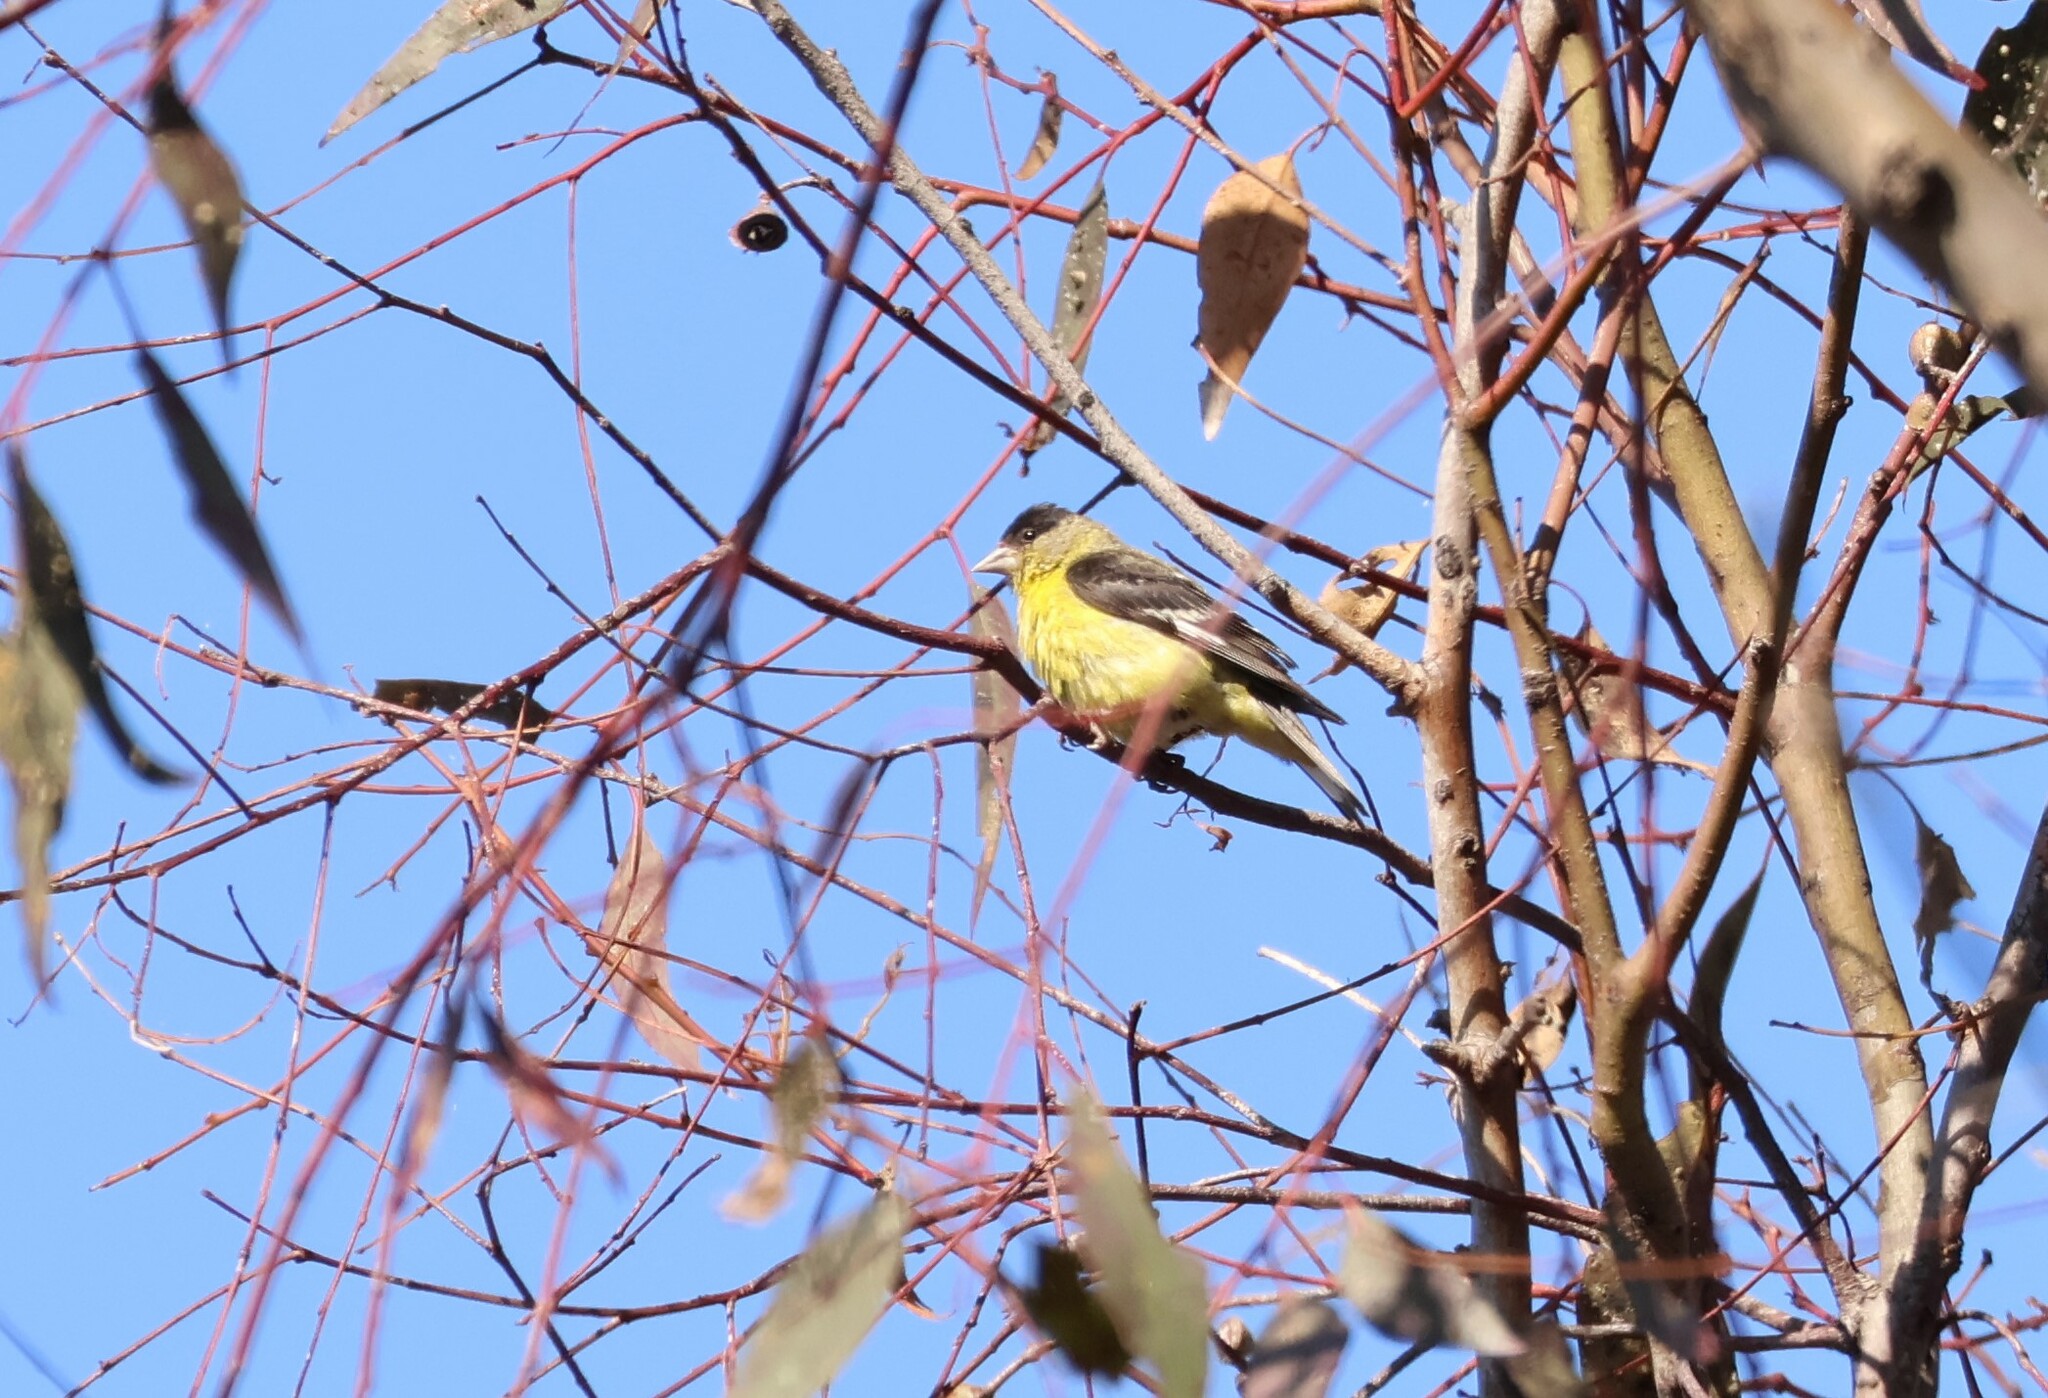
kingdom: Animalia
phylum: Chordata
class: Aves
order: Passeriformes
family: Fringillidae
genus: Spinus
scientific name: Spinus psaltria
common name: Lesser goldfinch
